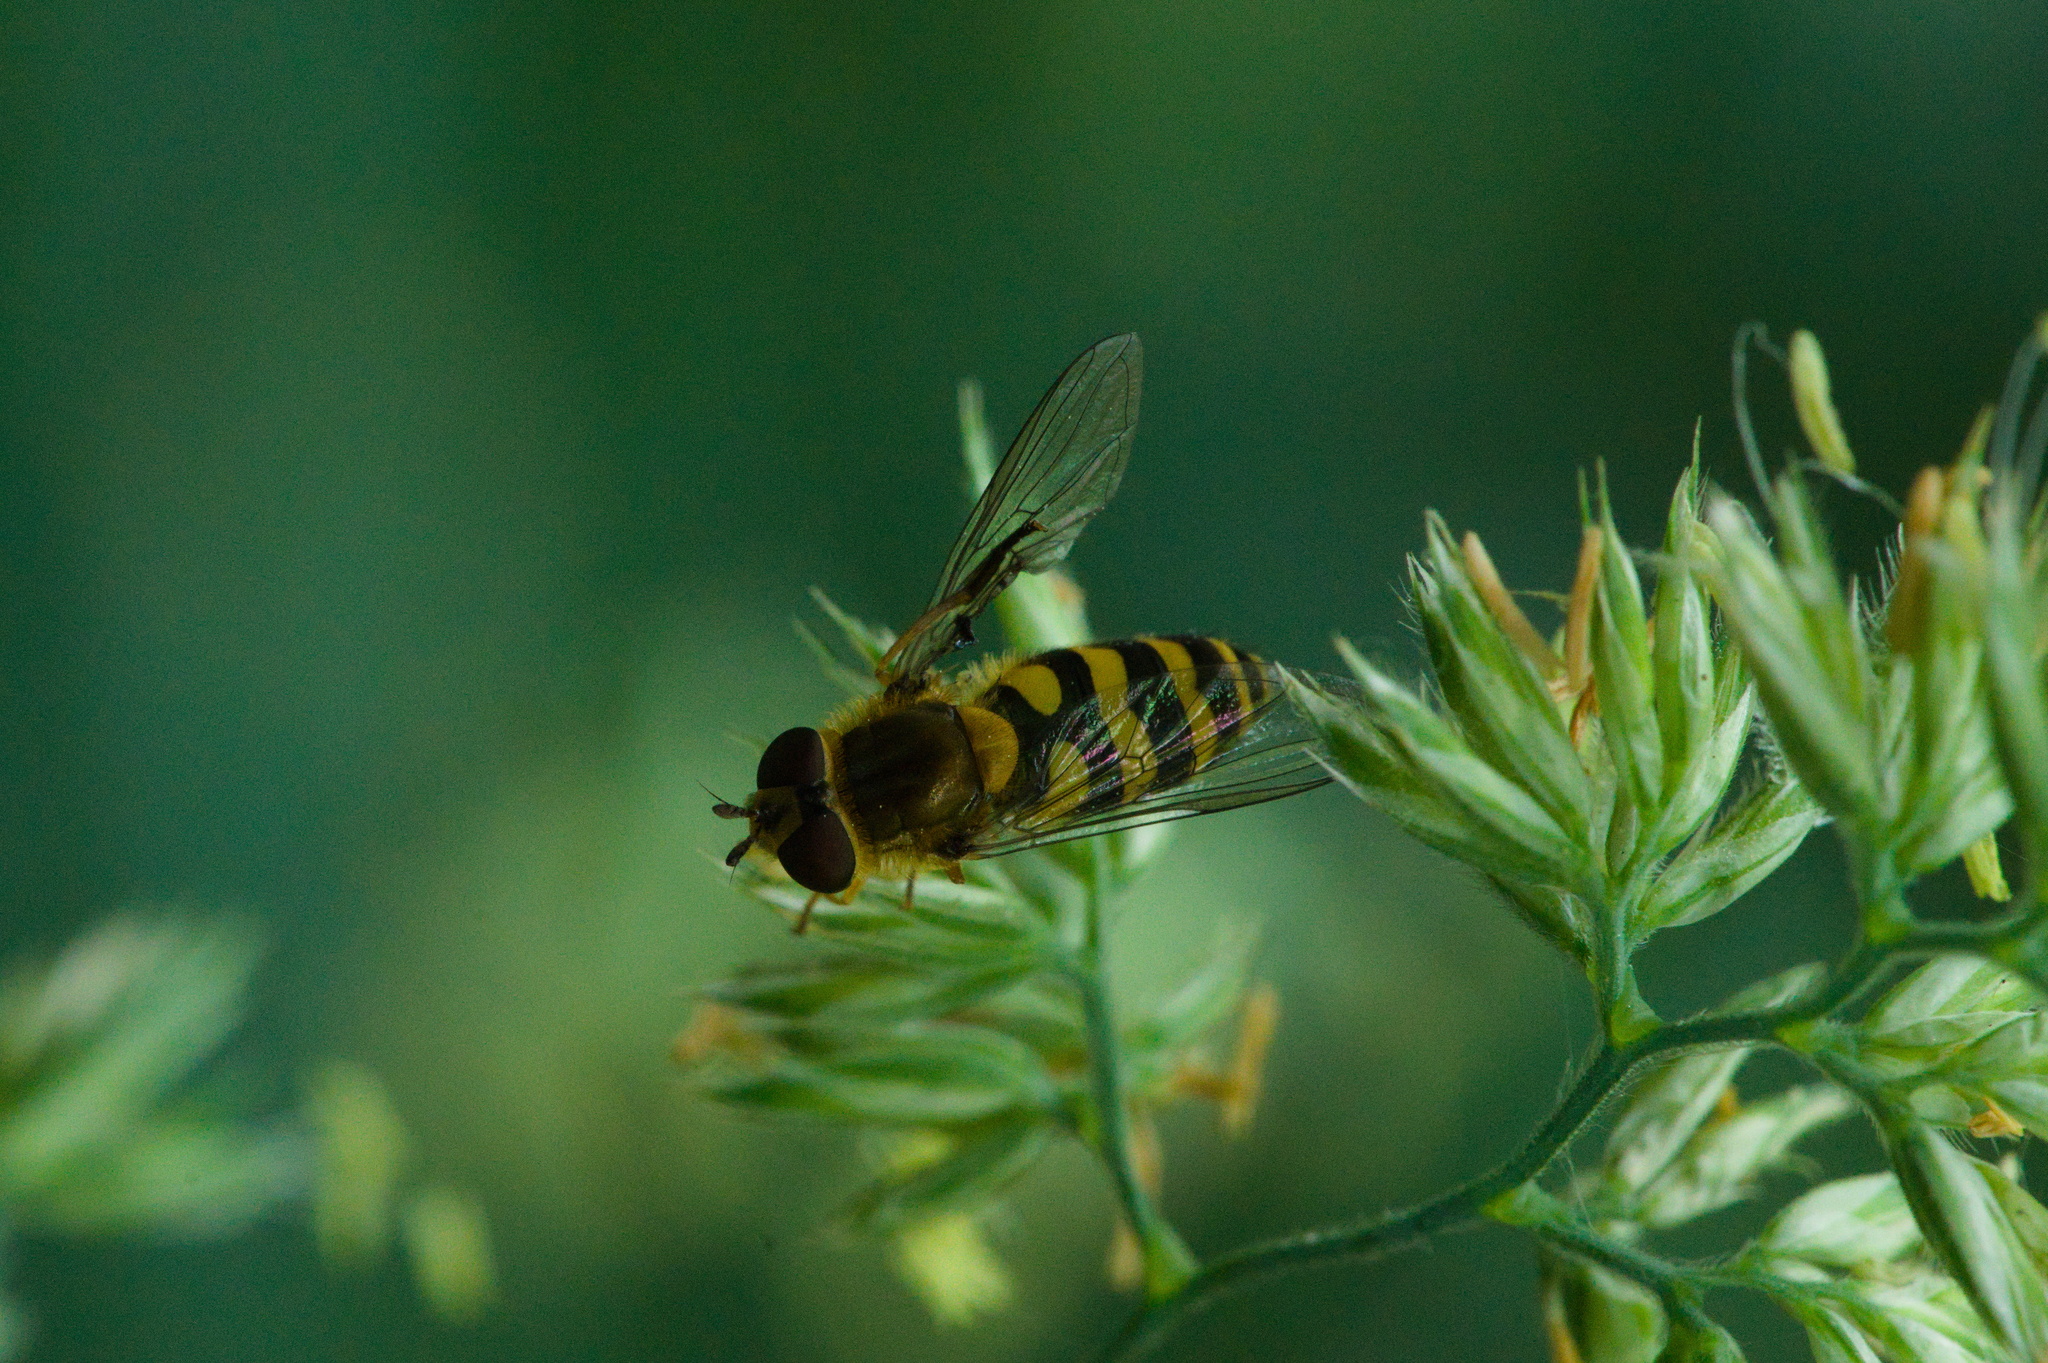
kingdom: Animalia
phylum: Arthropoda
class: Insecta
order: Diptera
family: Syrphidae
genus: Syrphus
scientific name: Syrphus
